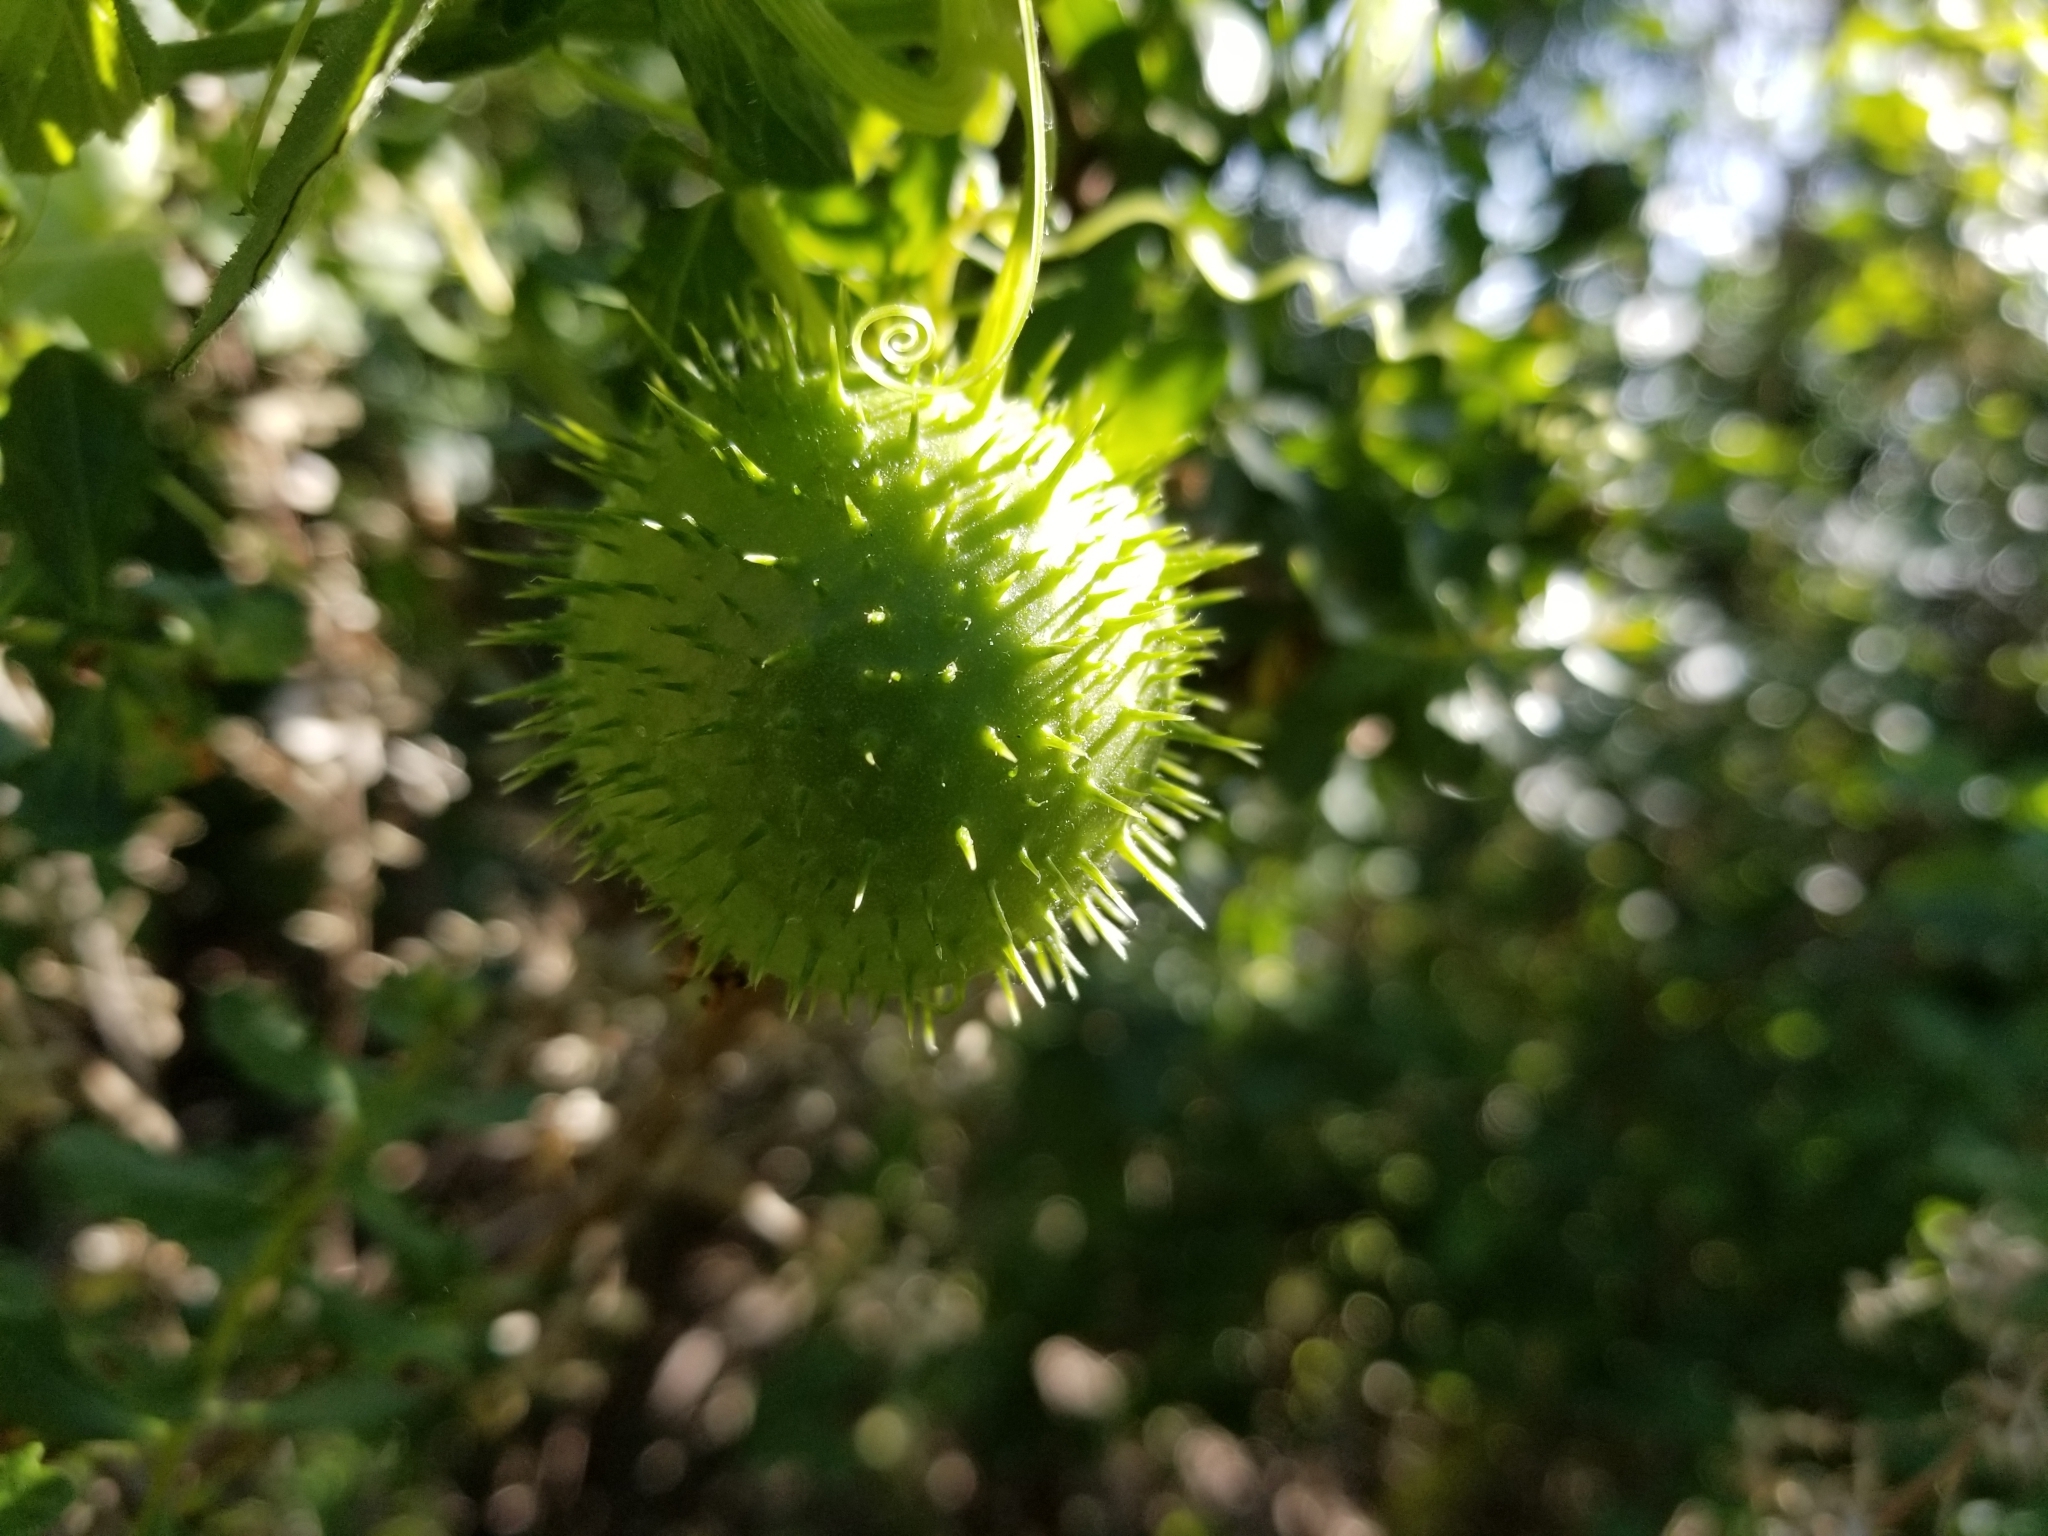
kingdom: Plantae
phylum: Tracheophyta
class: Magnoliopsida
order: Cucurbitales
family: Cucurbitaceae
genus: Marah
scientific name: Marah fabacea
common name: California manroot
